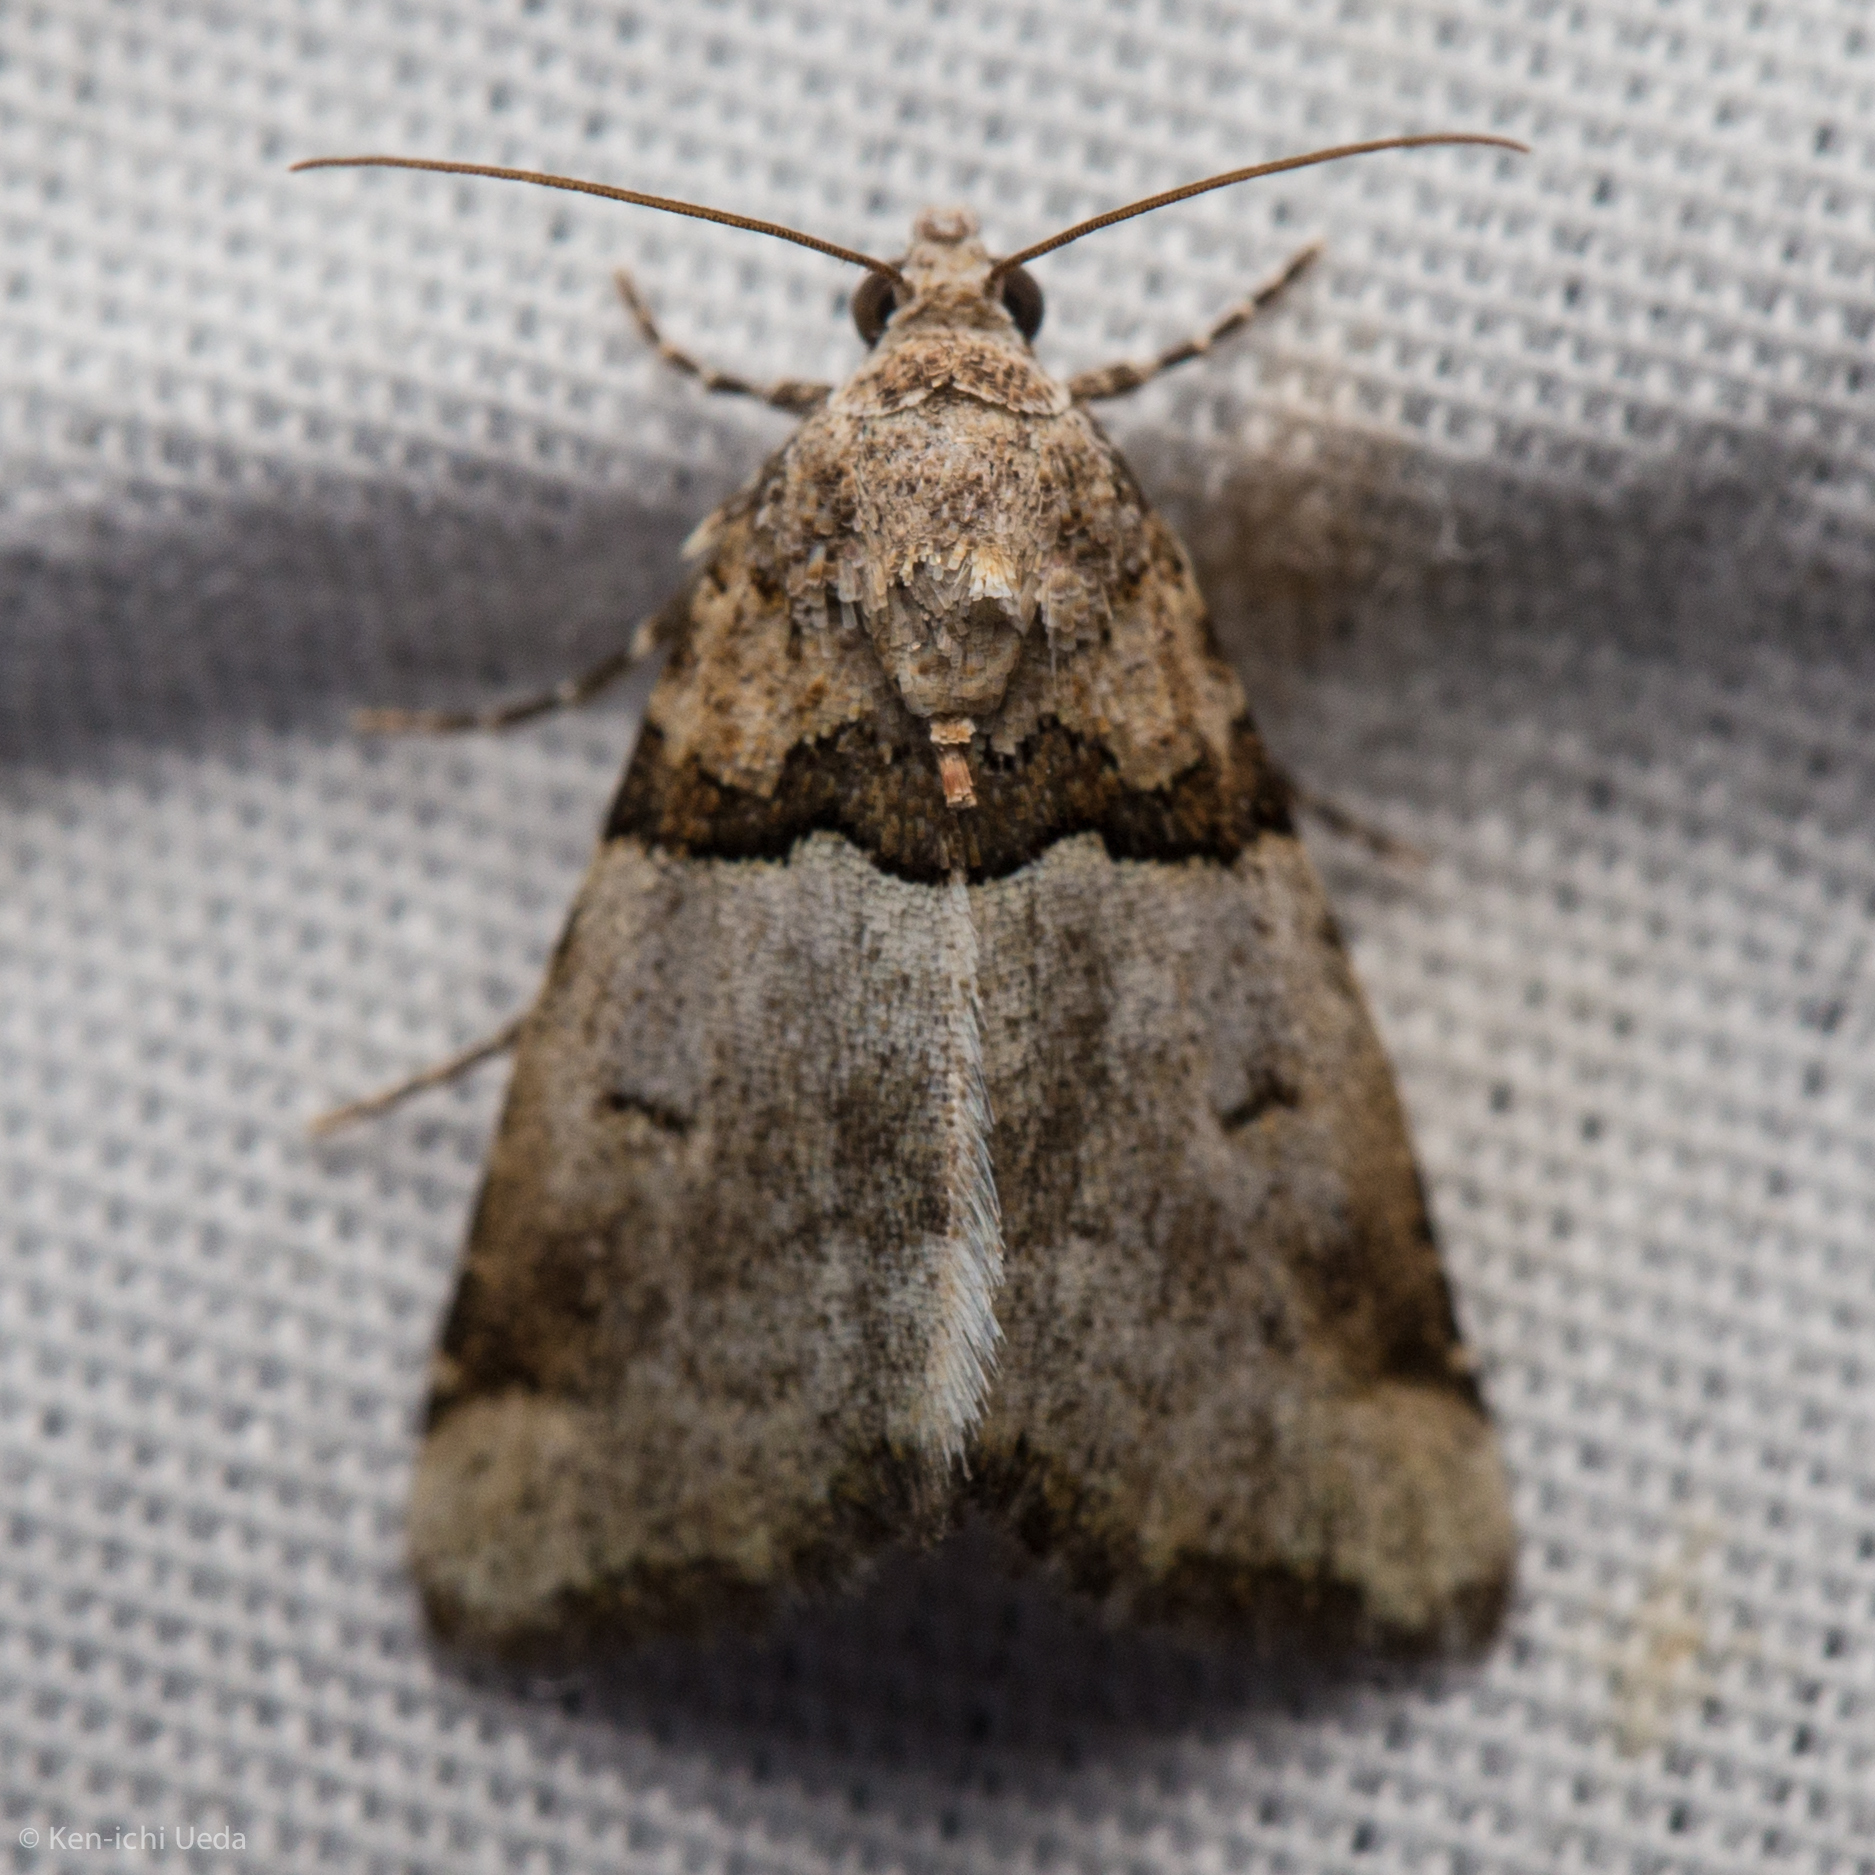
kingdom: Animalia
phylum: Arthropoda
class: Insecta
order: Lepidoptera
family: Noctuidae
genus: Cobubatha
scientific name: Cobubatha dividua
